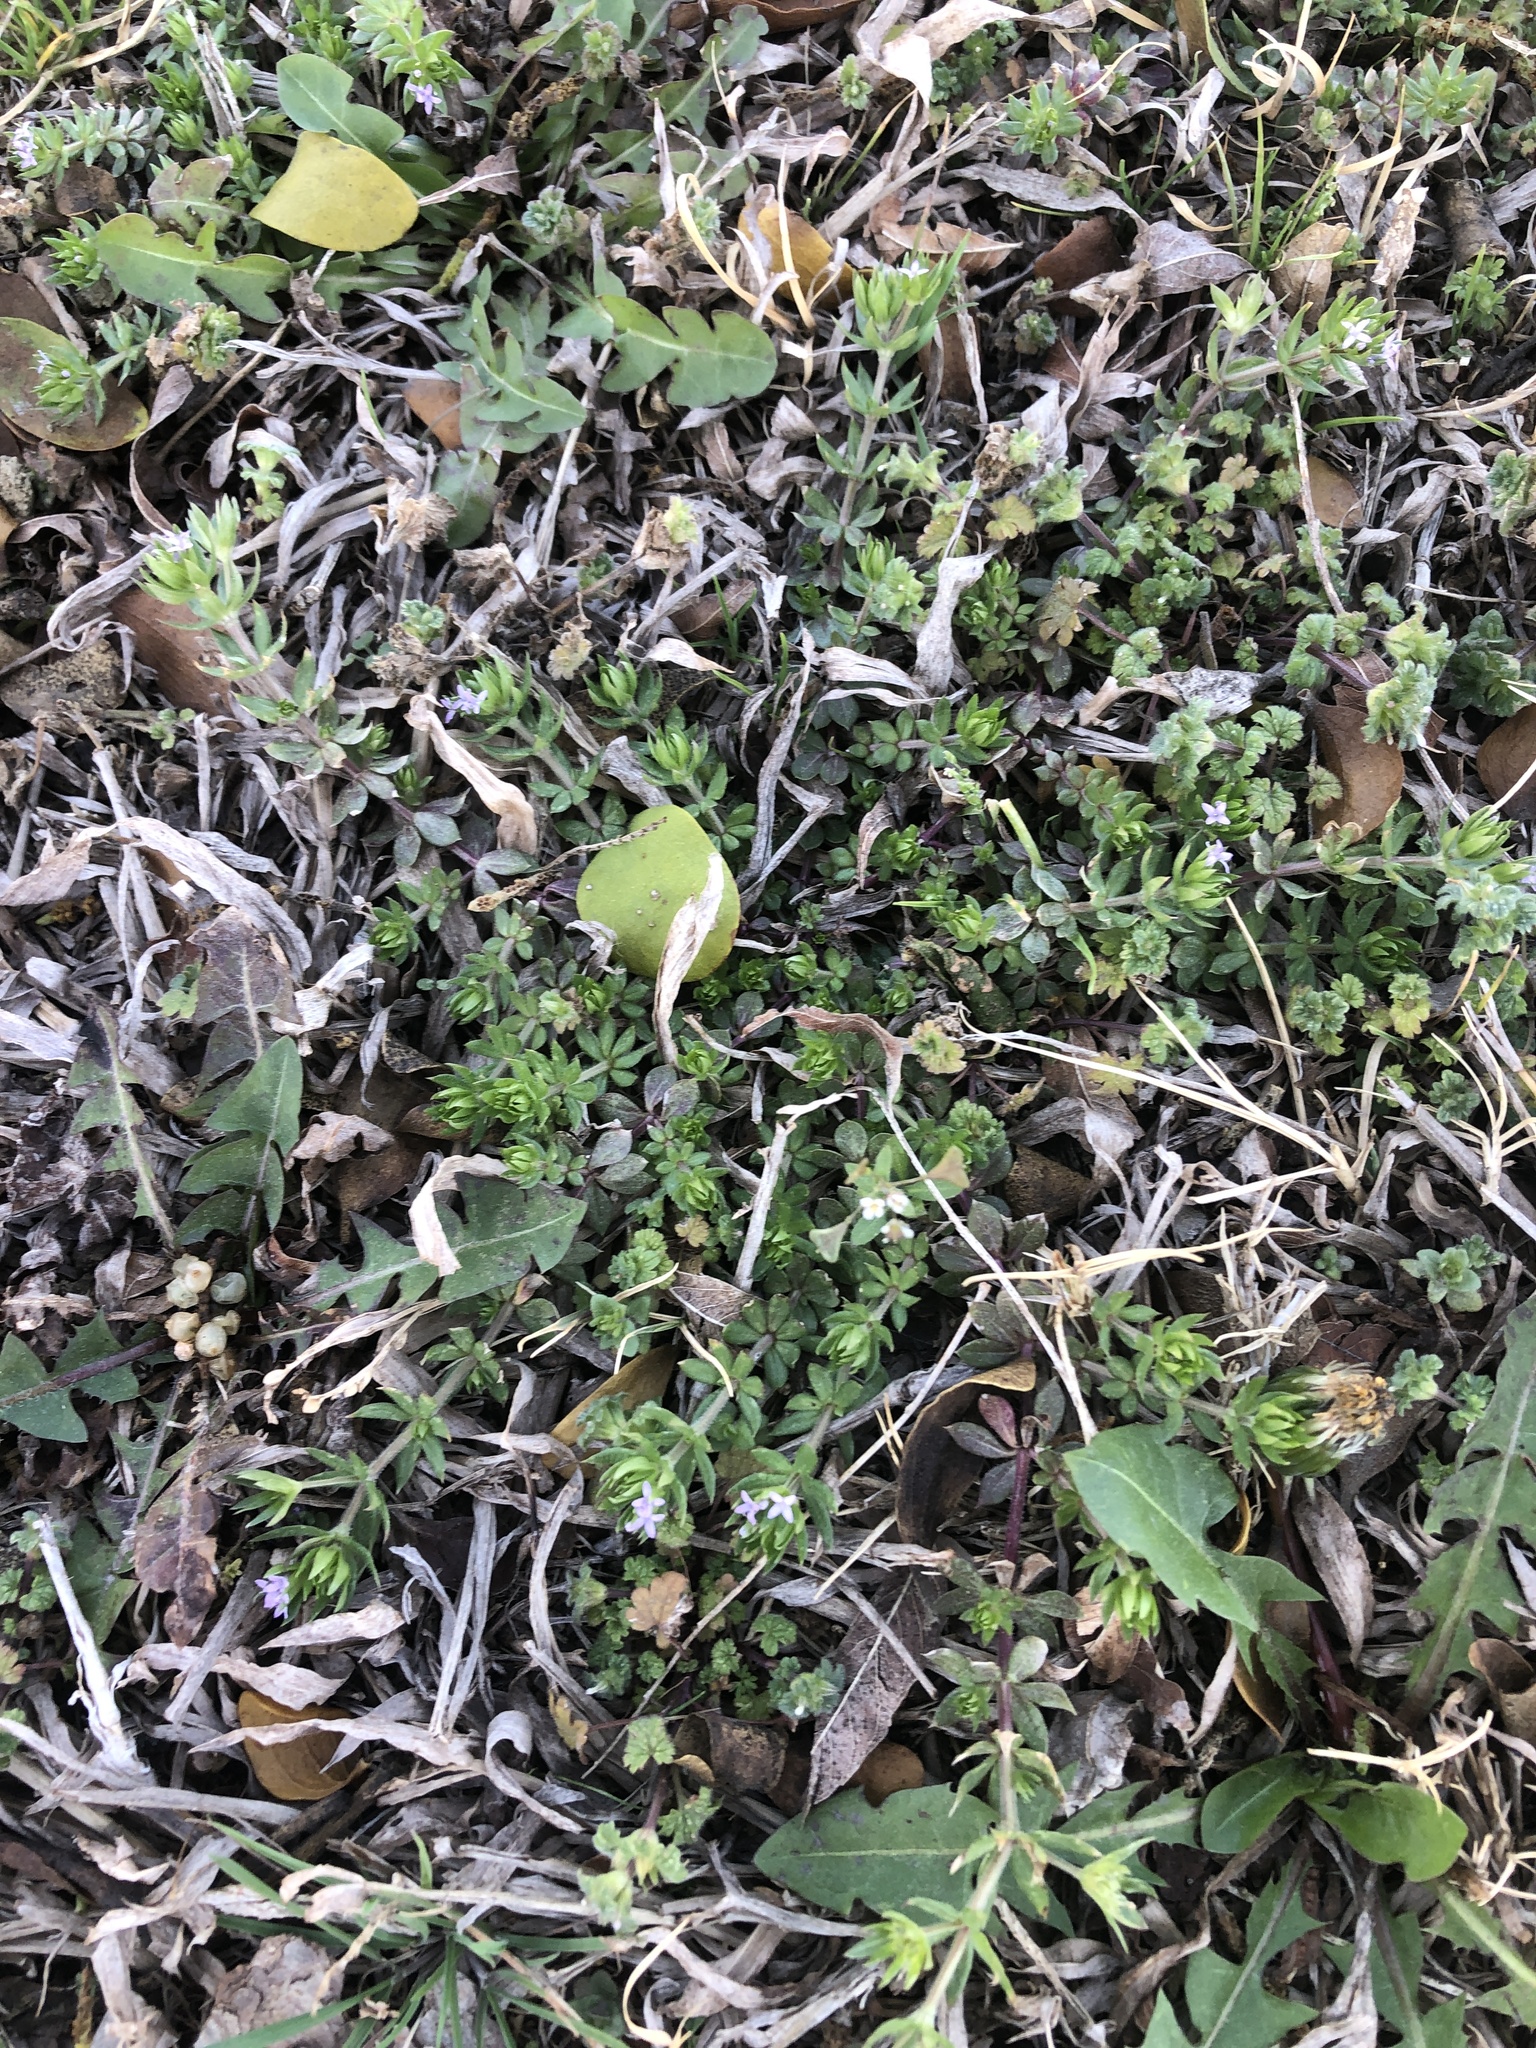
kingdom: Plantae
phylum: Tracheophyta
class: Magnoliopsida
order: Gentianales
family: Rubiaceae
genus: Sherardia
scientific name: Sherardia arvensis
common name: Field madder
